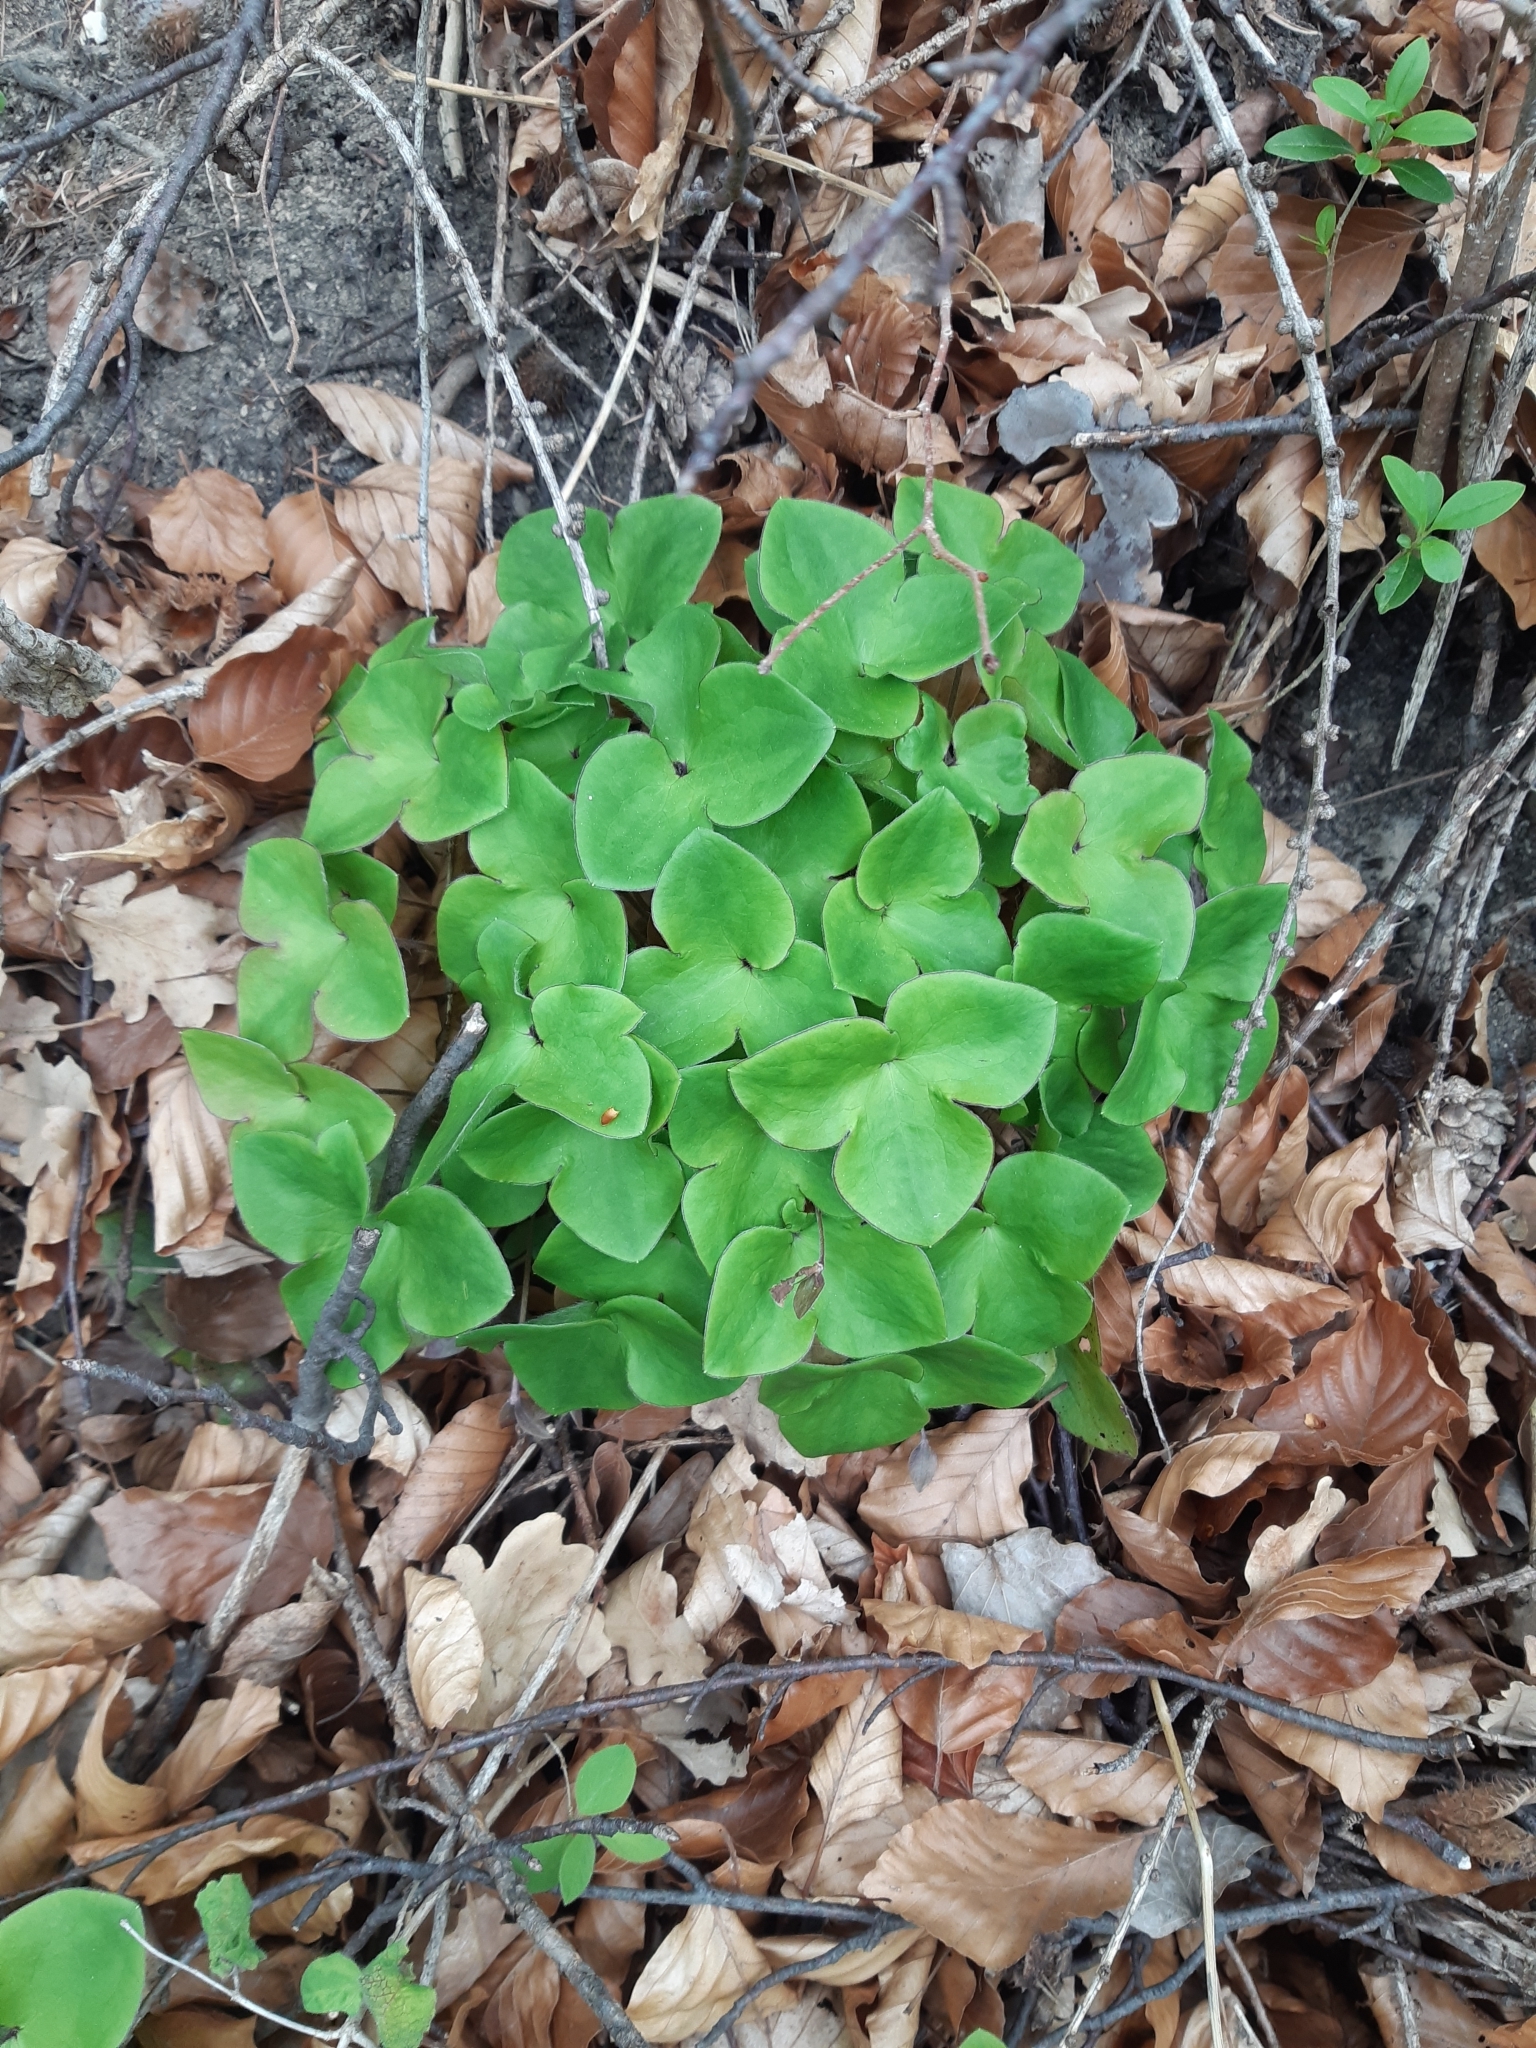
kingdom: Plantae
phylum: Tracheophyta
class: Magnoliopsida
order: Ranunculales
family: Ranunculaceae
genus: Hepatica
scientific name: Hepatica nobilis
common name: Liverleaf
